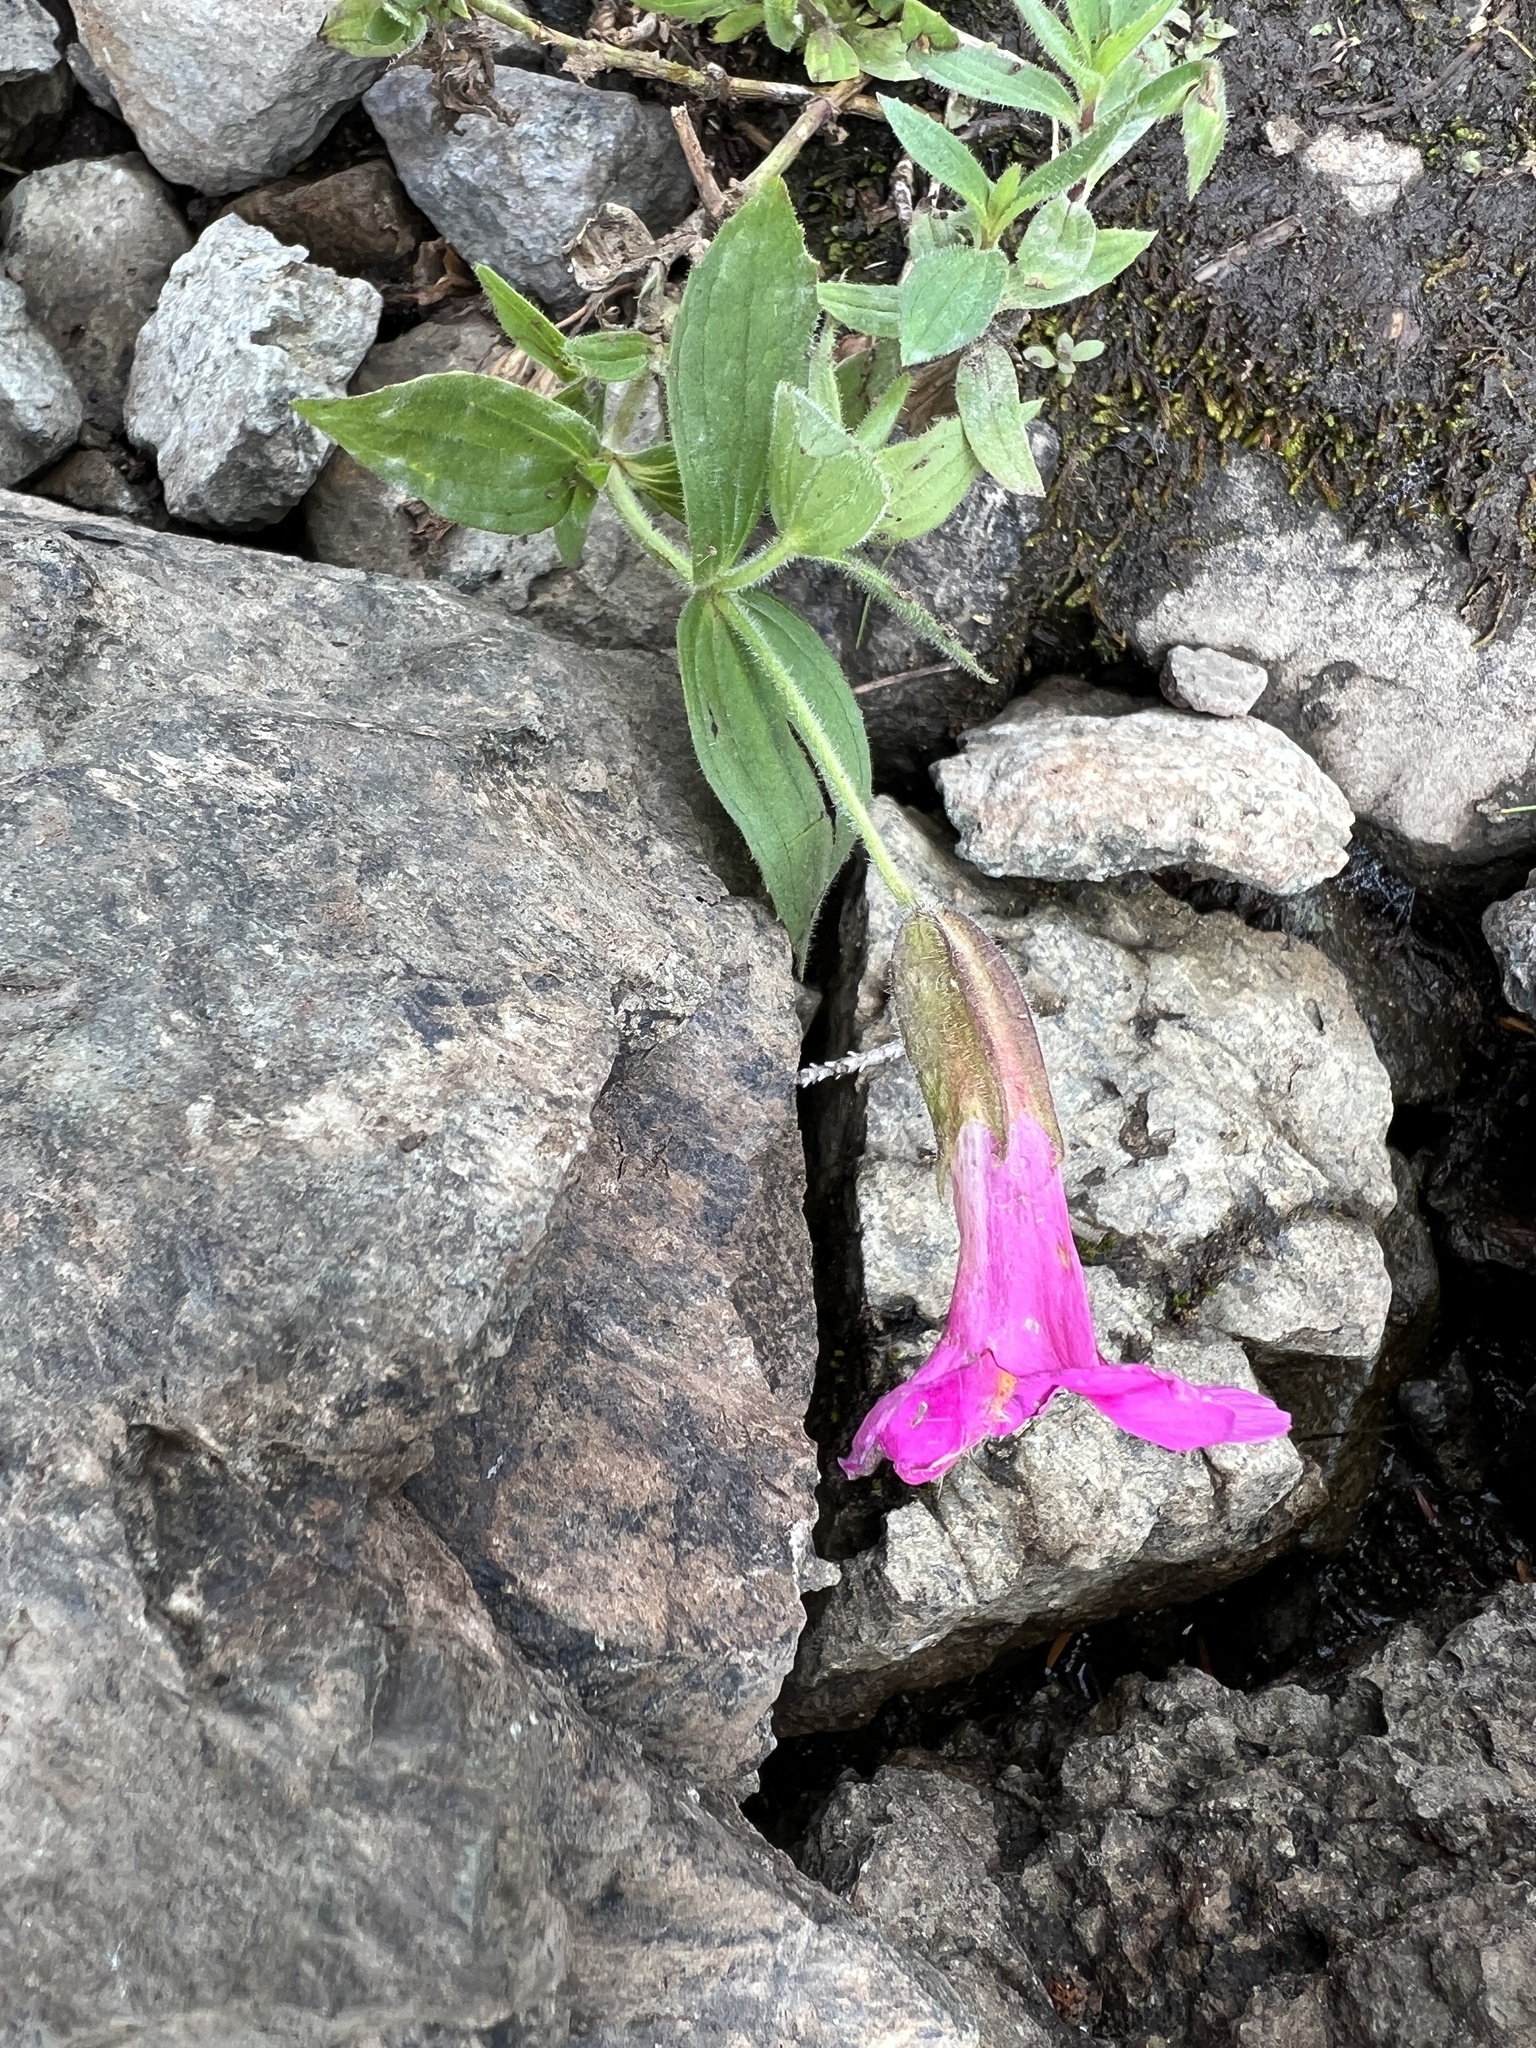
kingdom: Plantae
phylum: Tracheophyta
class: Magnoliopsida
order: Lamiales
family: Phrymaceae
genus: Erythranthe
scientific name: Erythranthe lewisii
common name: Lewis's monkey-flower
